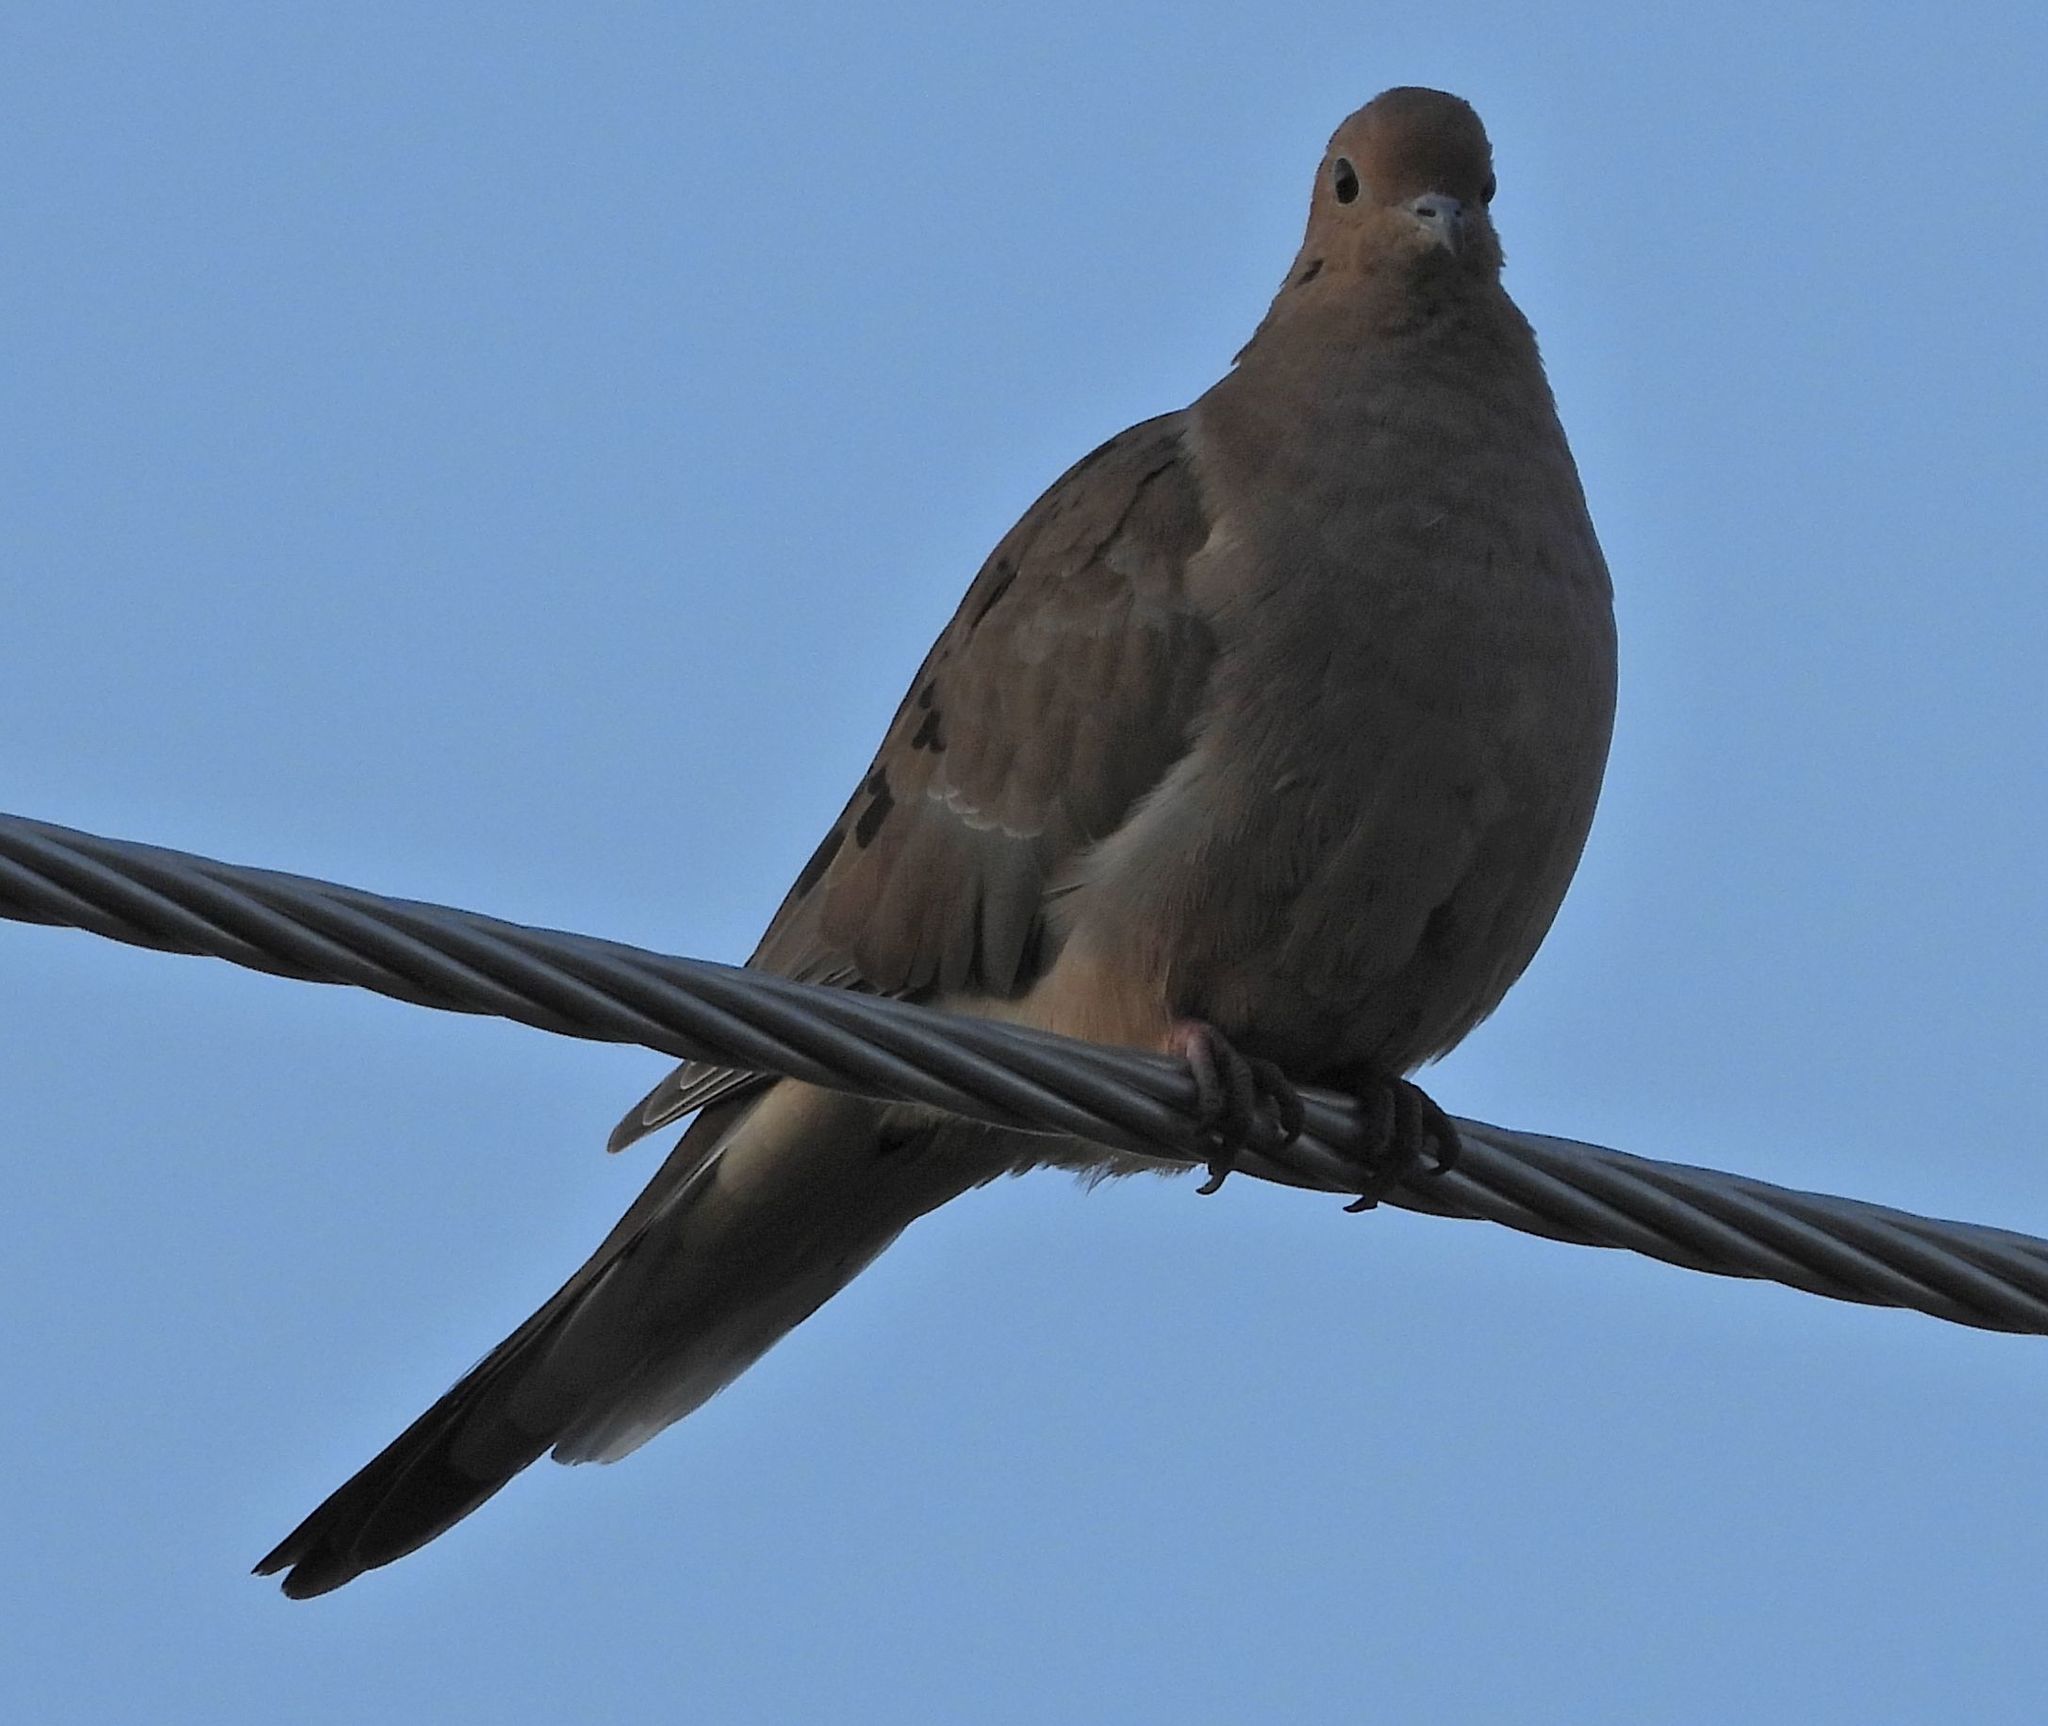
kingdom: Animalia
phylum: Chordata
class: Aves
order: Columbiformes
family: Columbidae
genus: Zenaida
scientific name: Zenaida macroura
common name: Mourning dove
